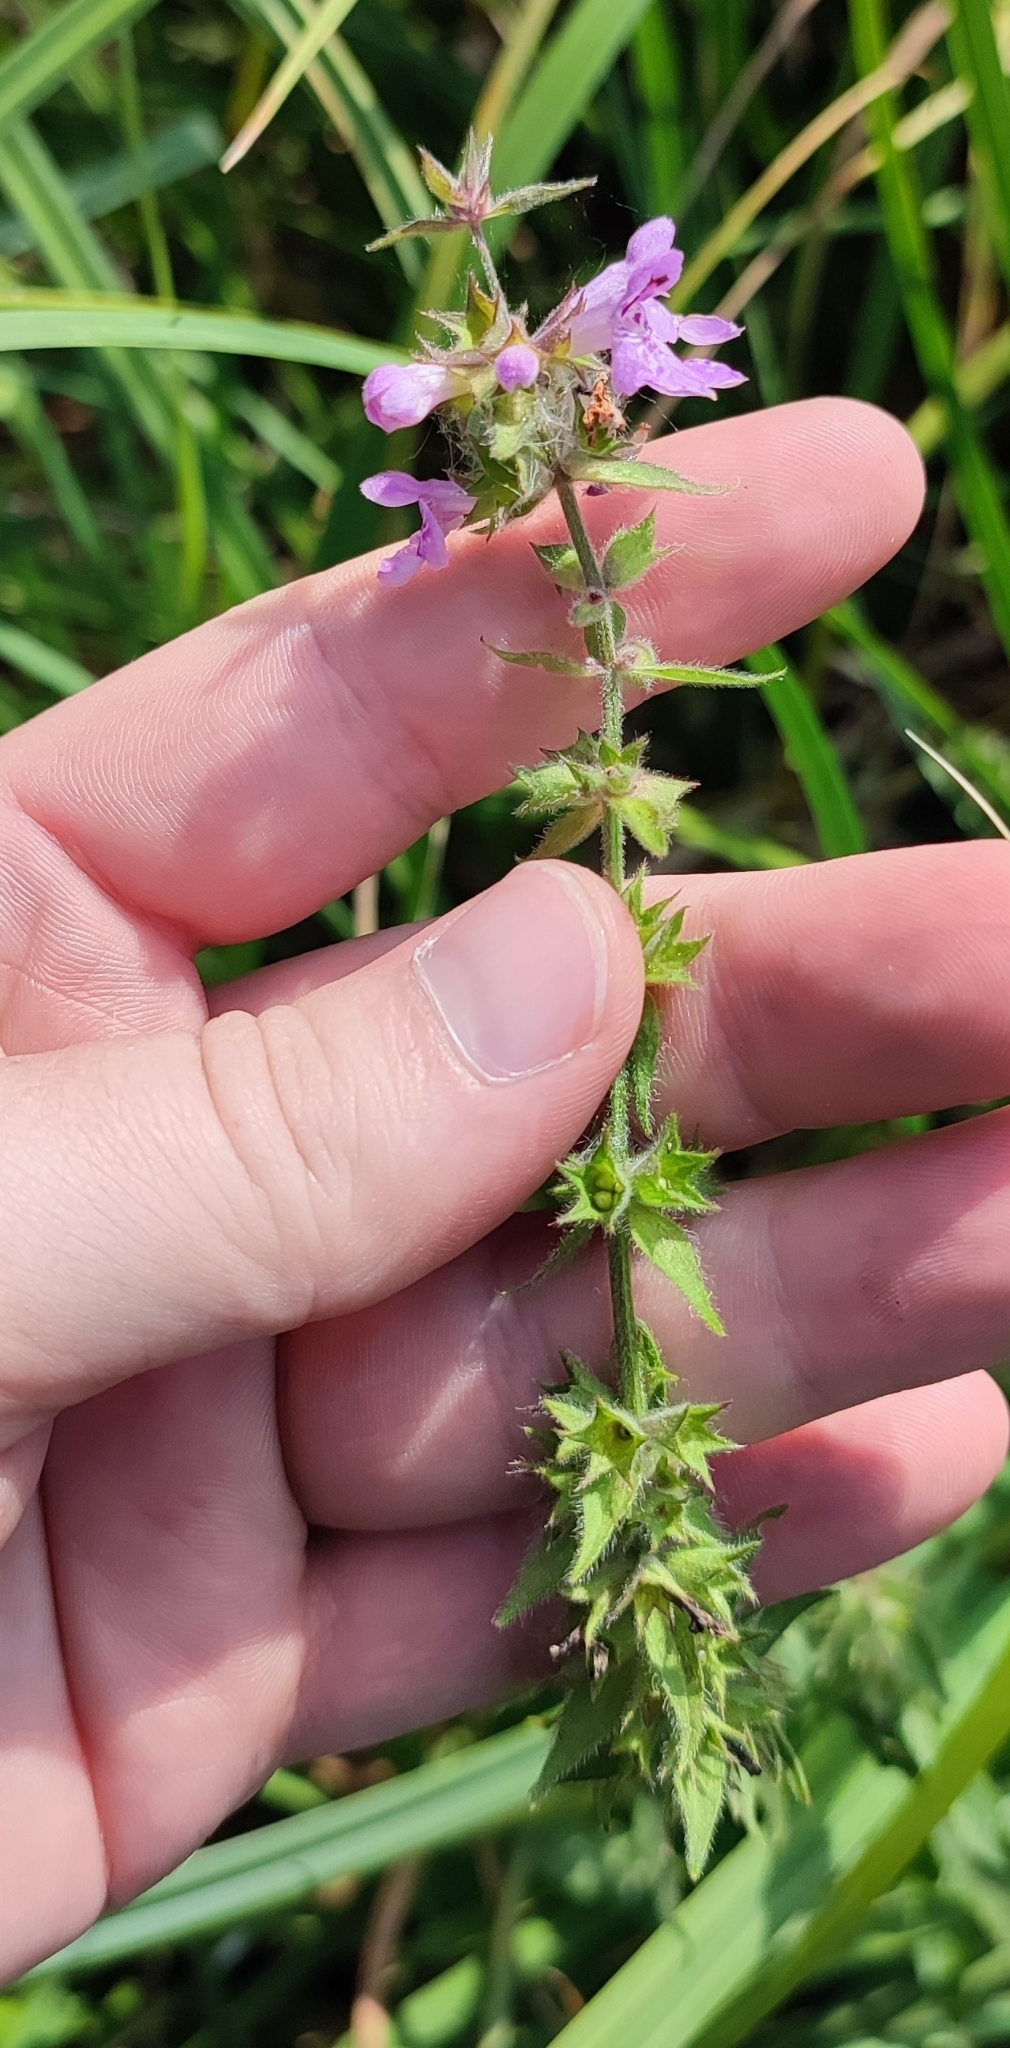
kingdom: Plantae
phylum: Tracheophyta
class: Magnoliopsida
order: Lamiales
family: Lamiaceae
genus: Stachys
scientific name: Stachys palustris
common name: Marsh woundwort
